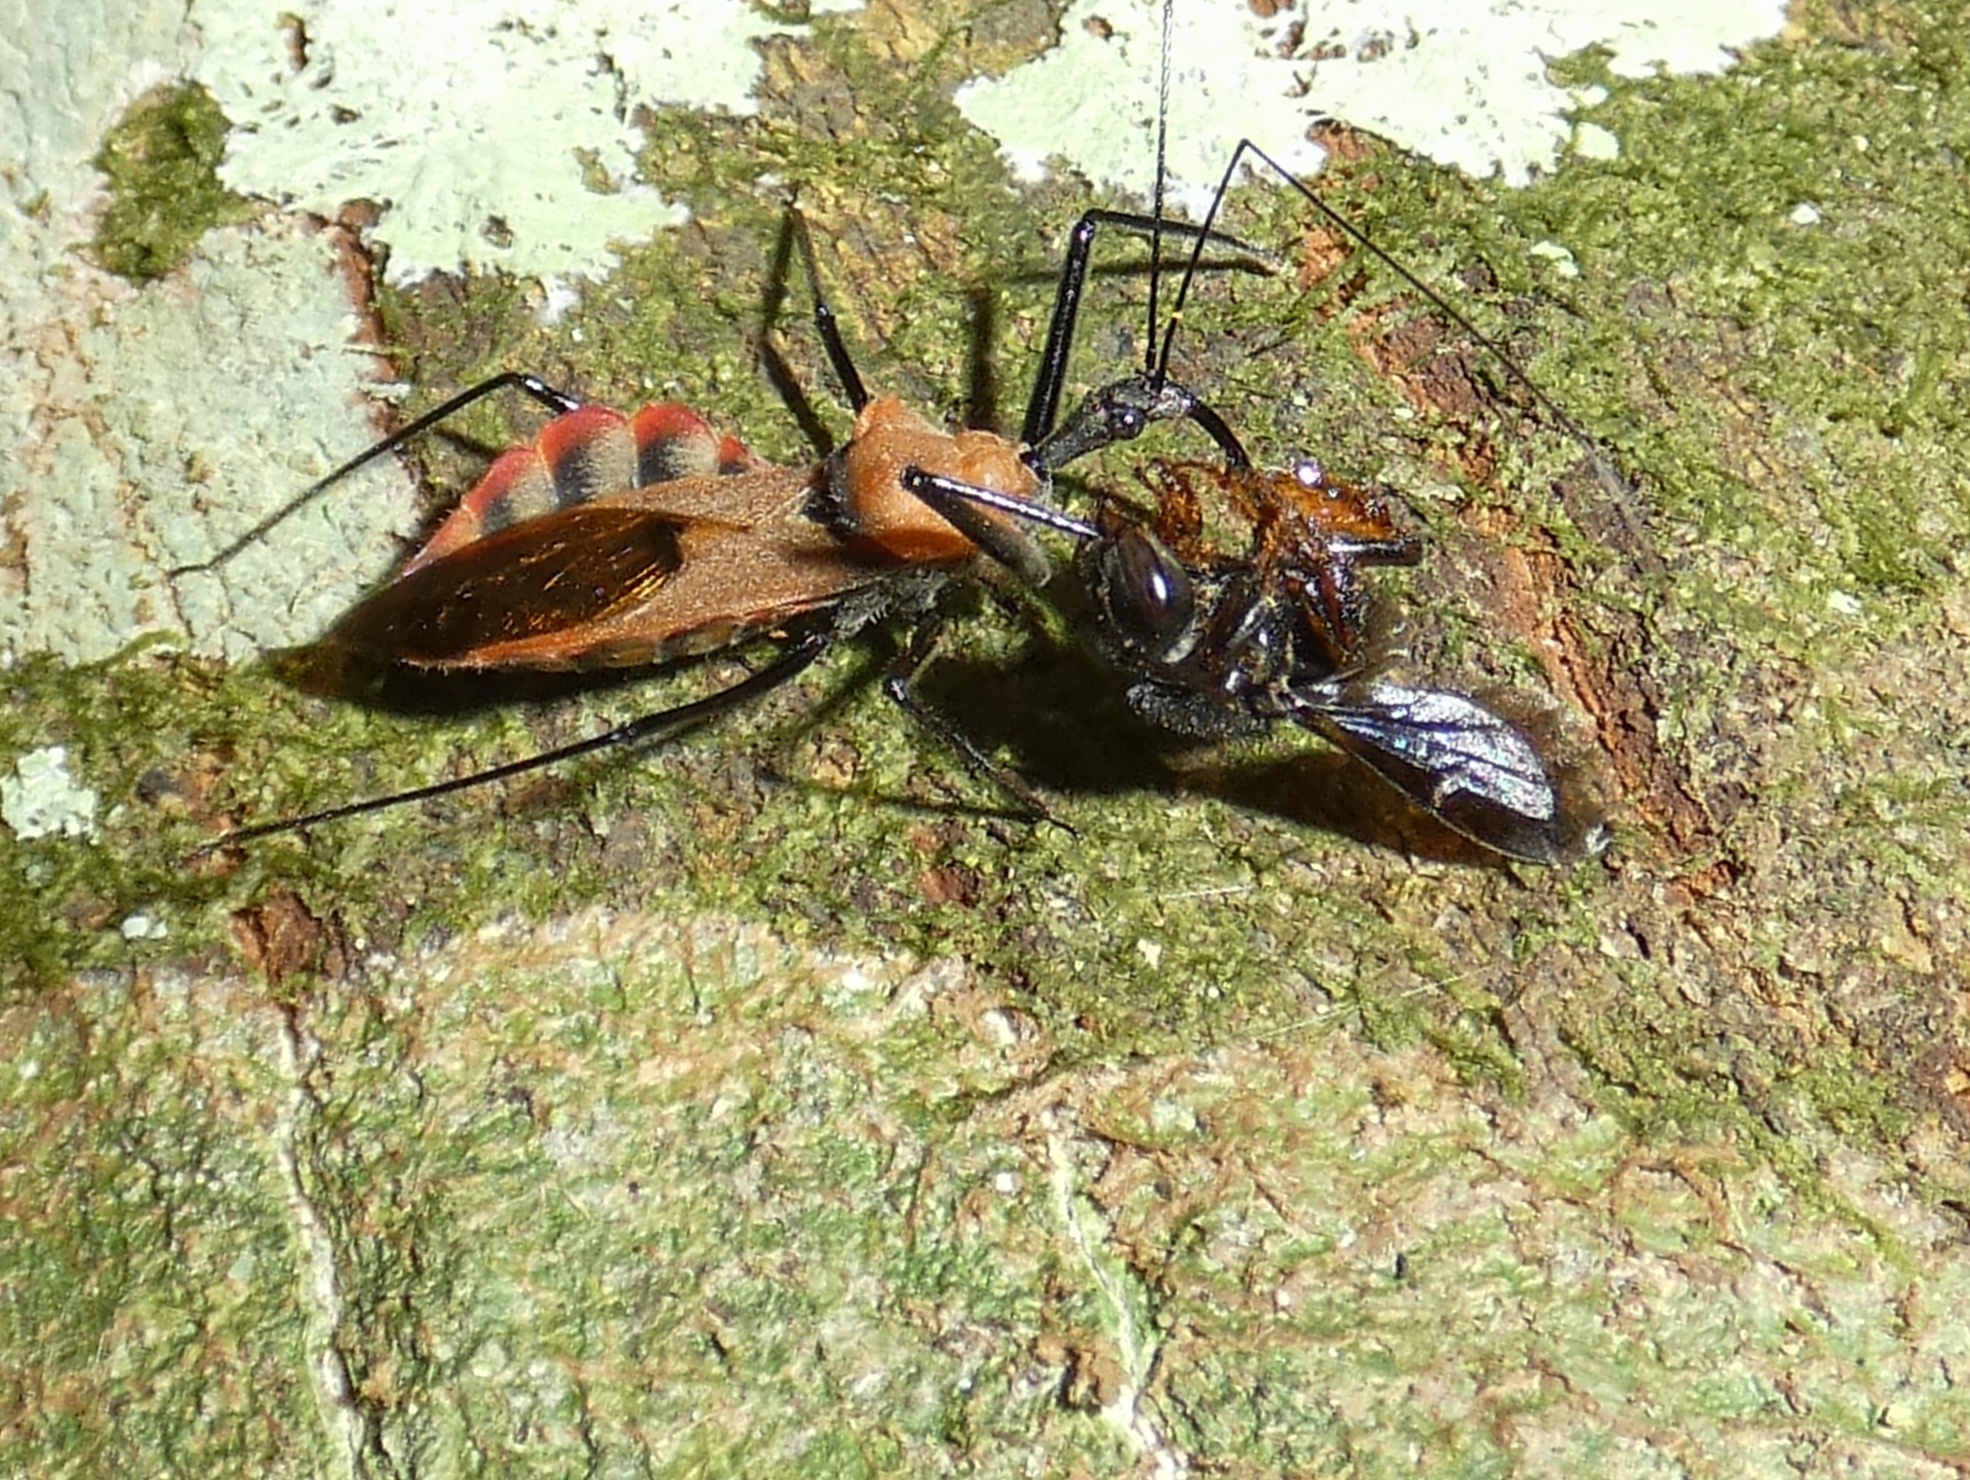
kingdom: Animalia
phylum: Arthropoda
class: Insecta
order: Hemiptera
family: Reduviidae
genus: Montina
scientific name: Montina scutellaris
